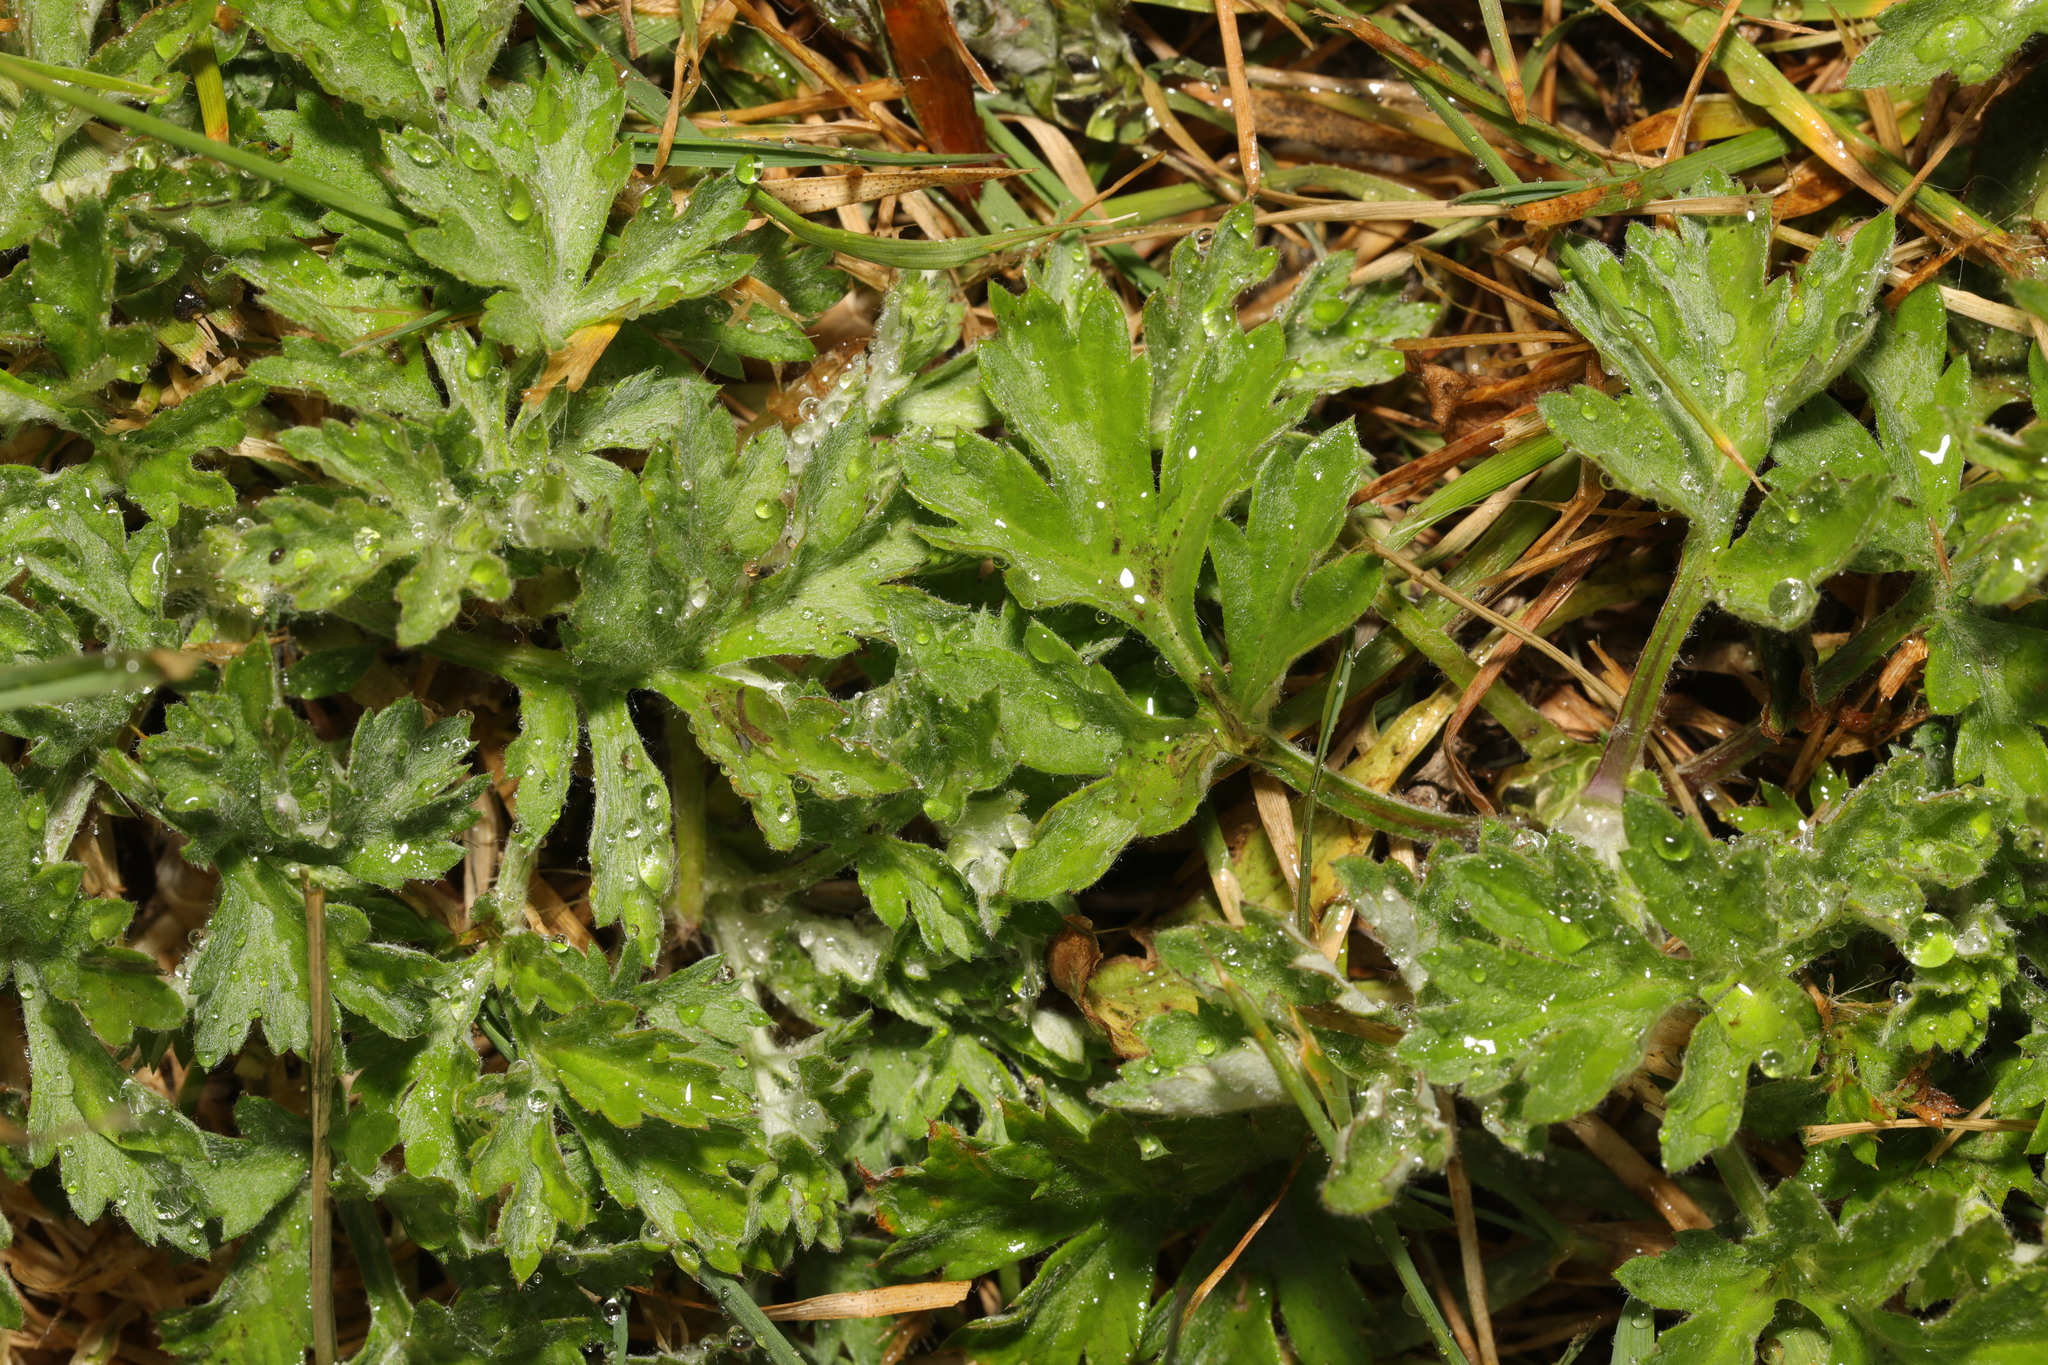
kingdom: Plantae
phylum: Tracheophyta
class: Magnoliopsida
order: Asterales
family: Asteraceae
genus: Artemisia
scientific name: Artemisia vulgaris
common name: Mugwort
